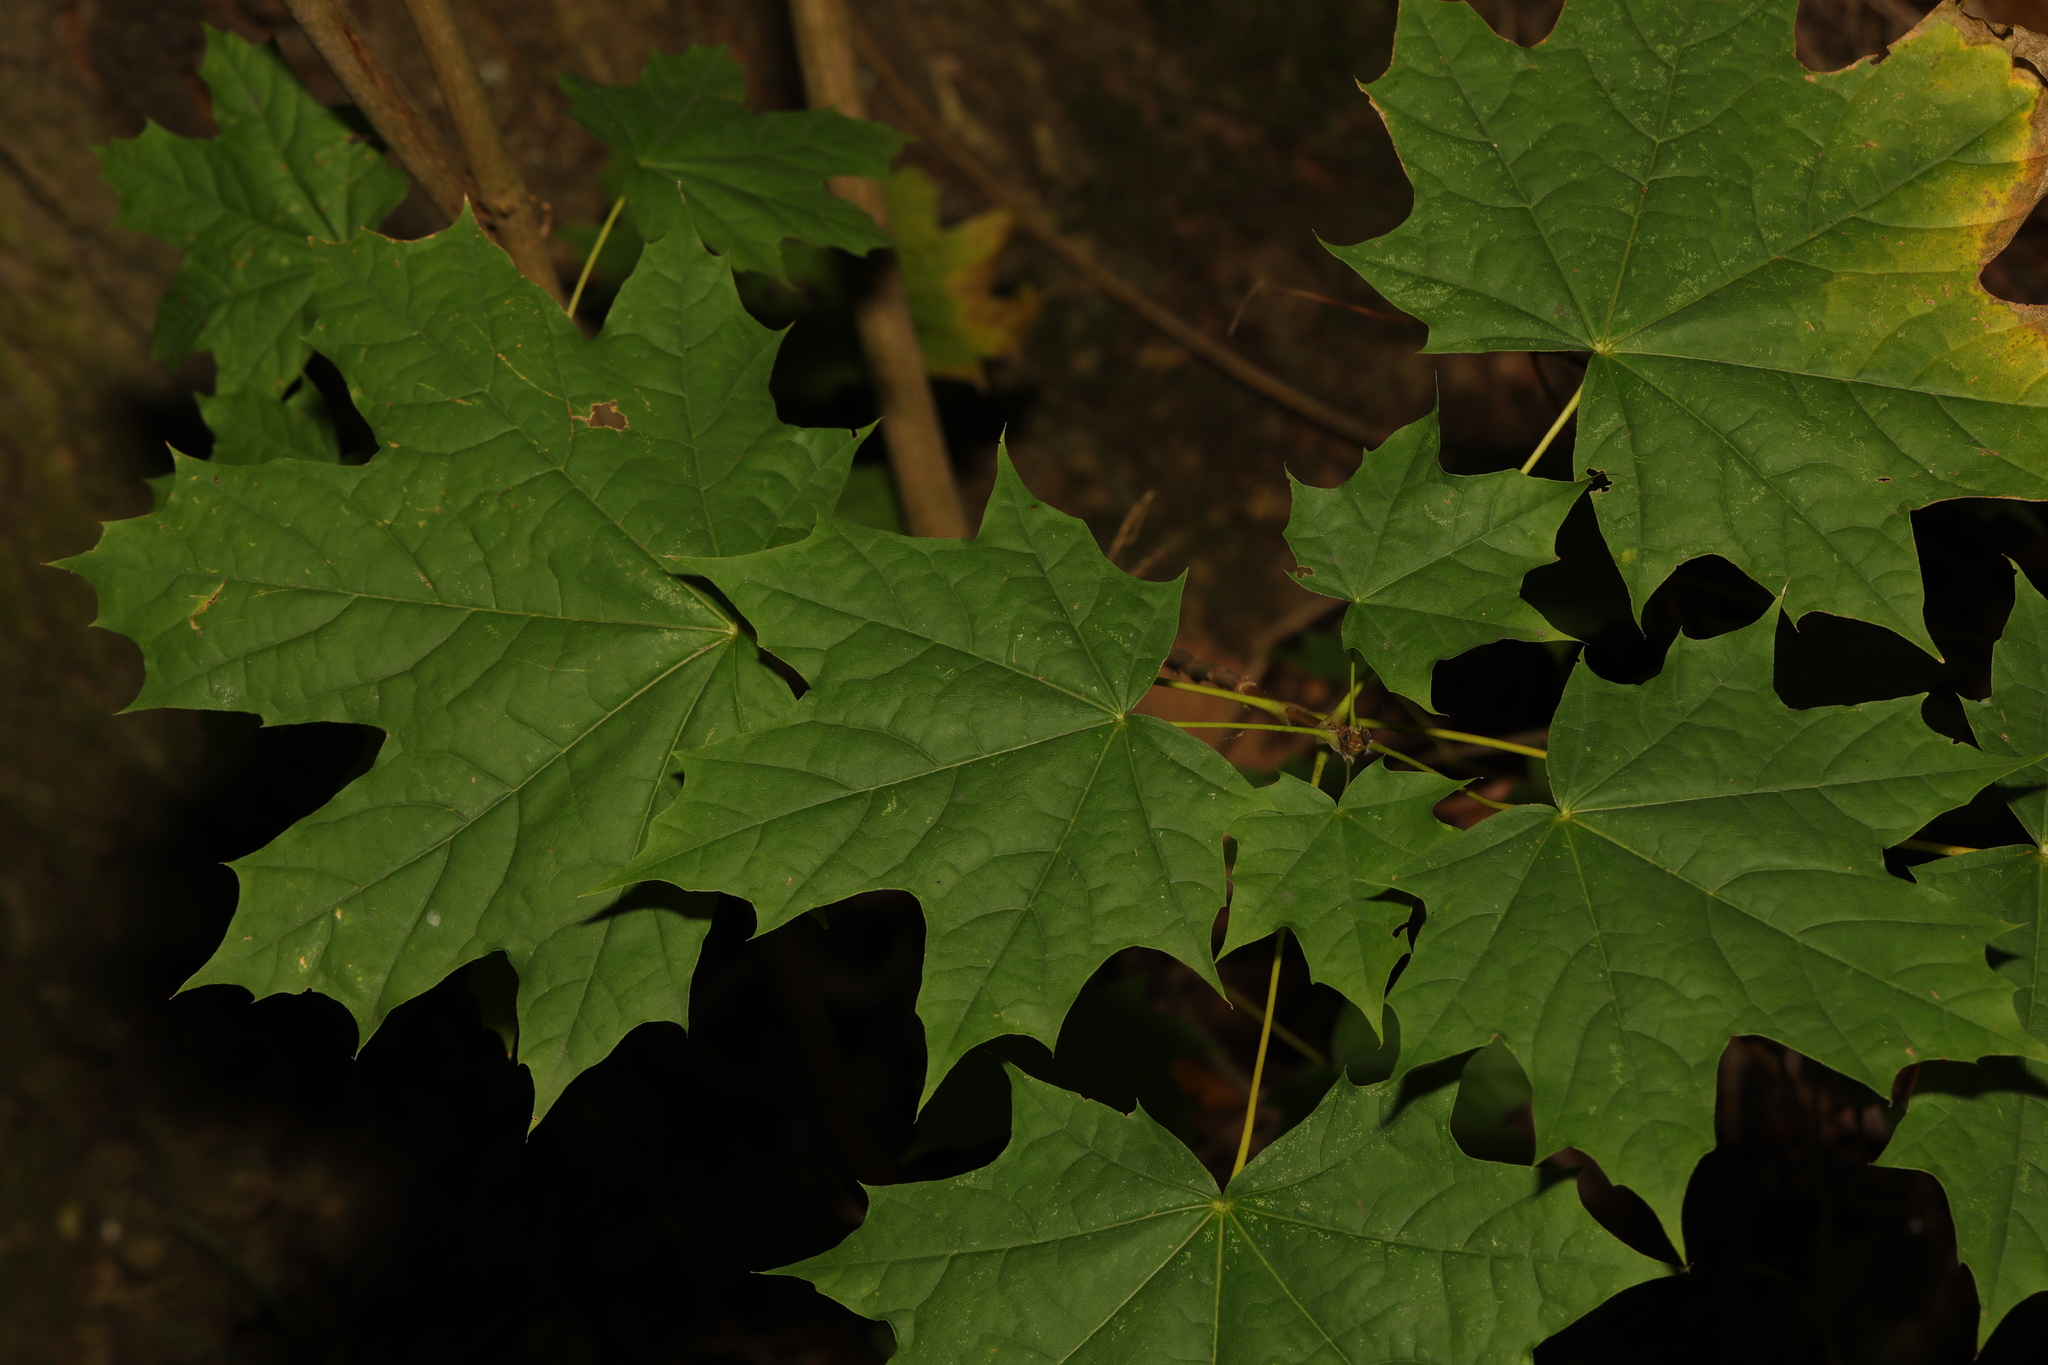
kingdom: Plantae
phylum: Tracheophyta
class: Magnoliopsida
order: Sapindales
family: Sapindaceae
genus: Acer
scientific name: Acer platanoides
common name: Norway maple
